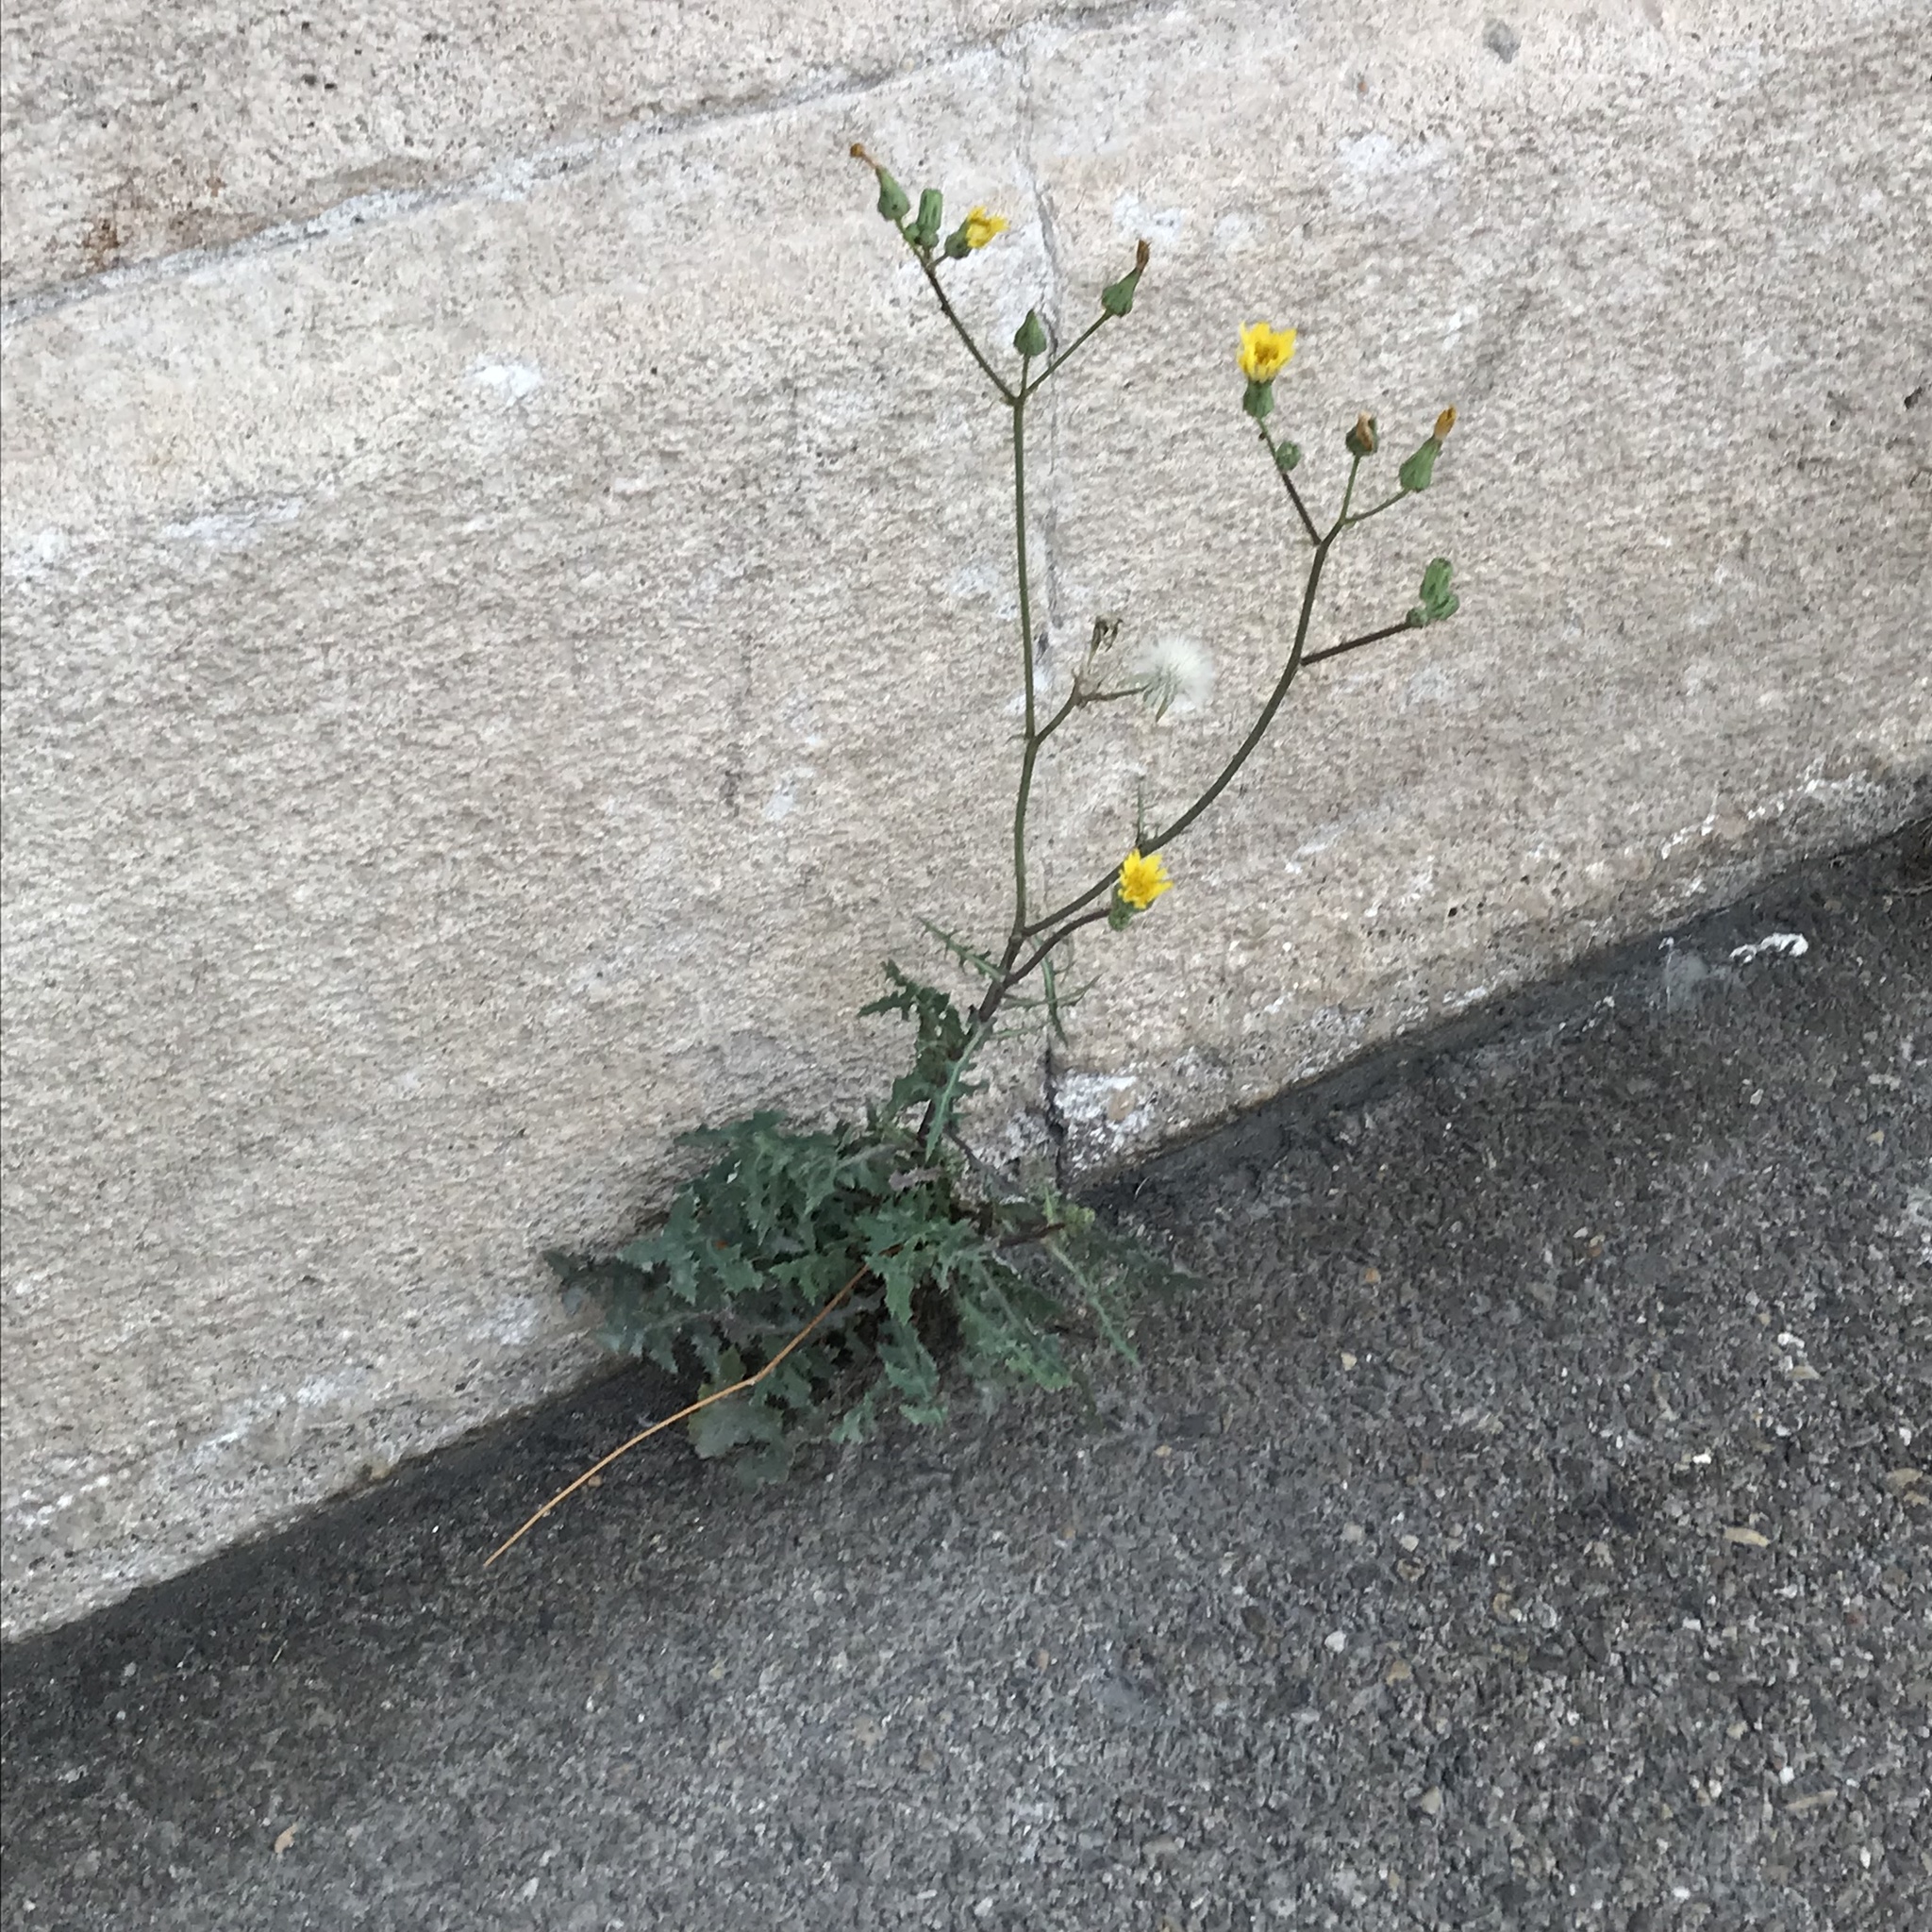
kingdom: Plantae
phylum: Tracheophyta
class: Magnoliopsida
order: Asterales
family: Asteraceae
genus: Reichardia
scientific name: Reichardia picroides
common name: Common brighteyes
